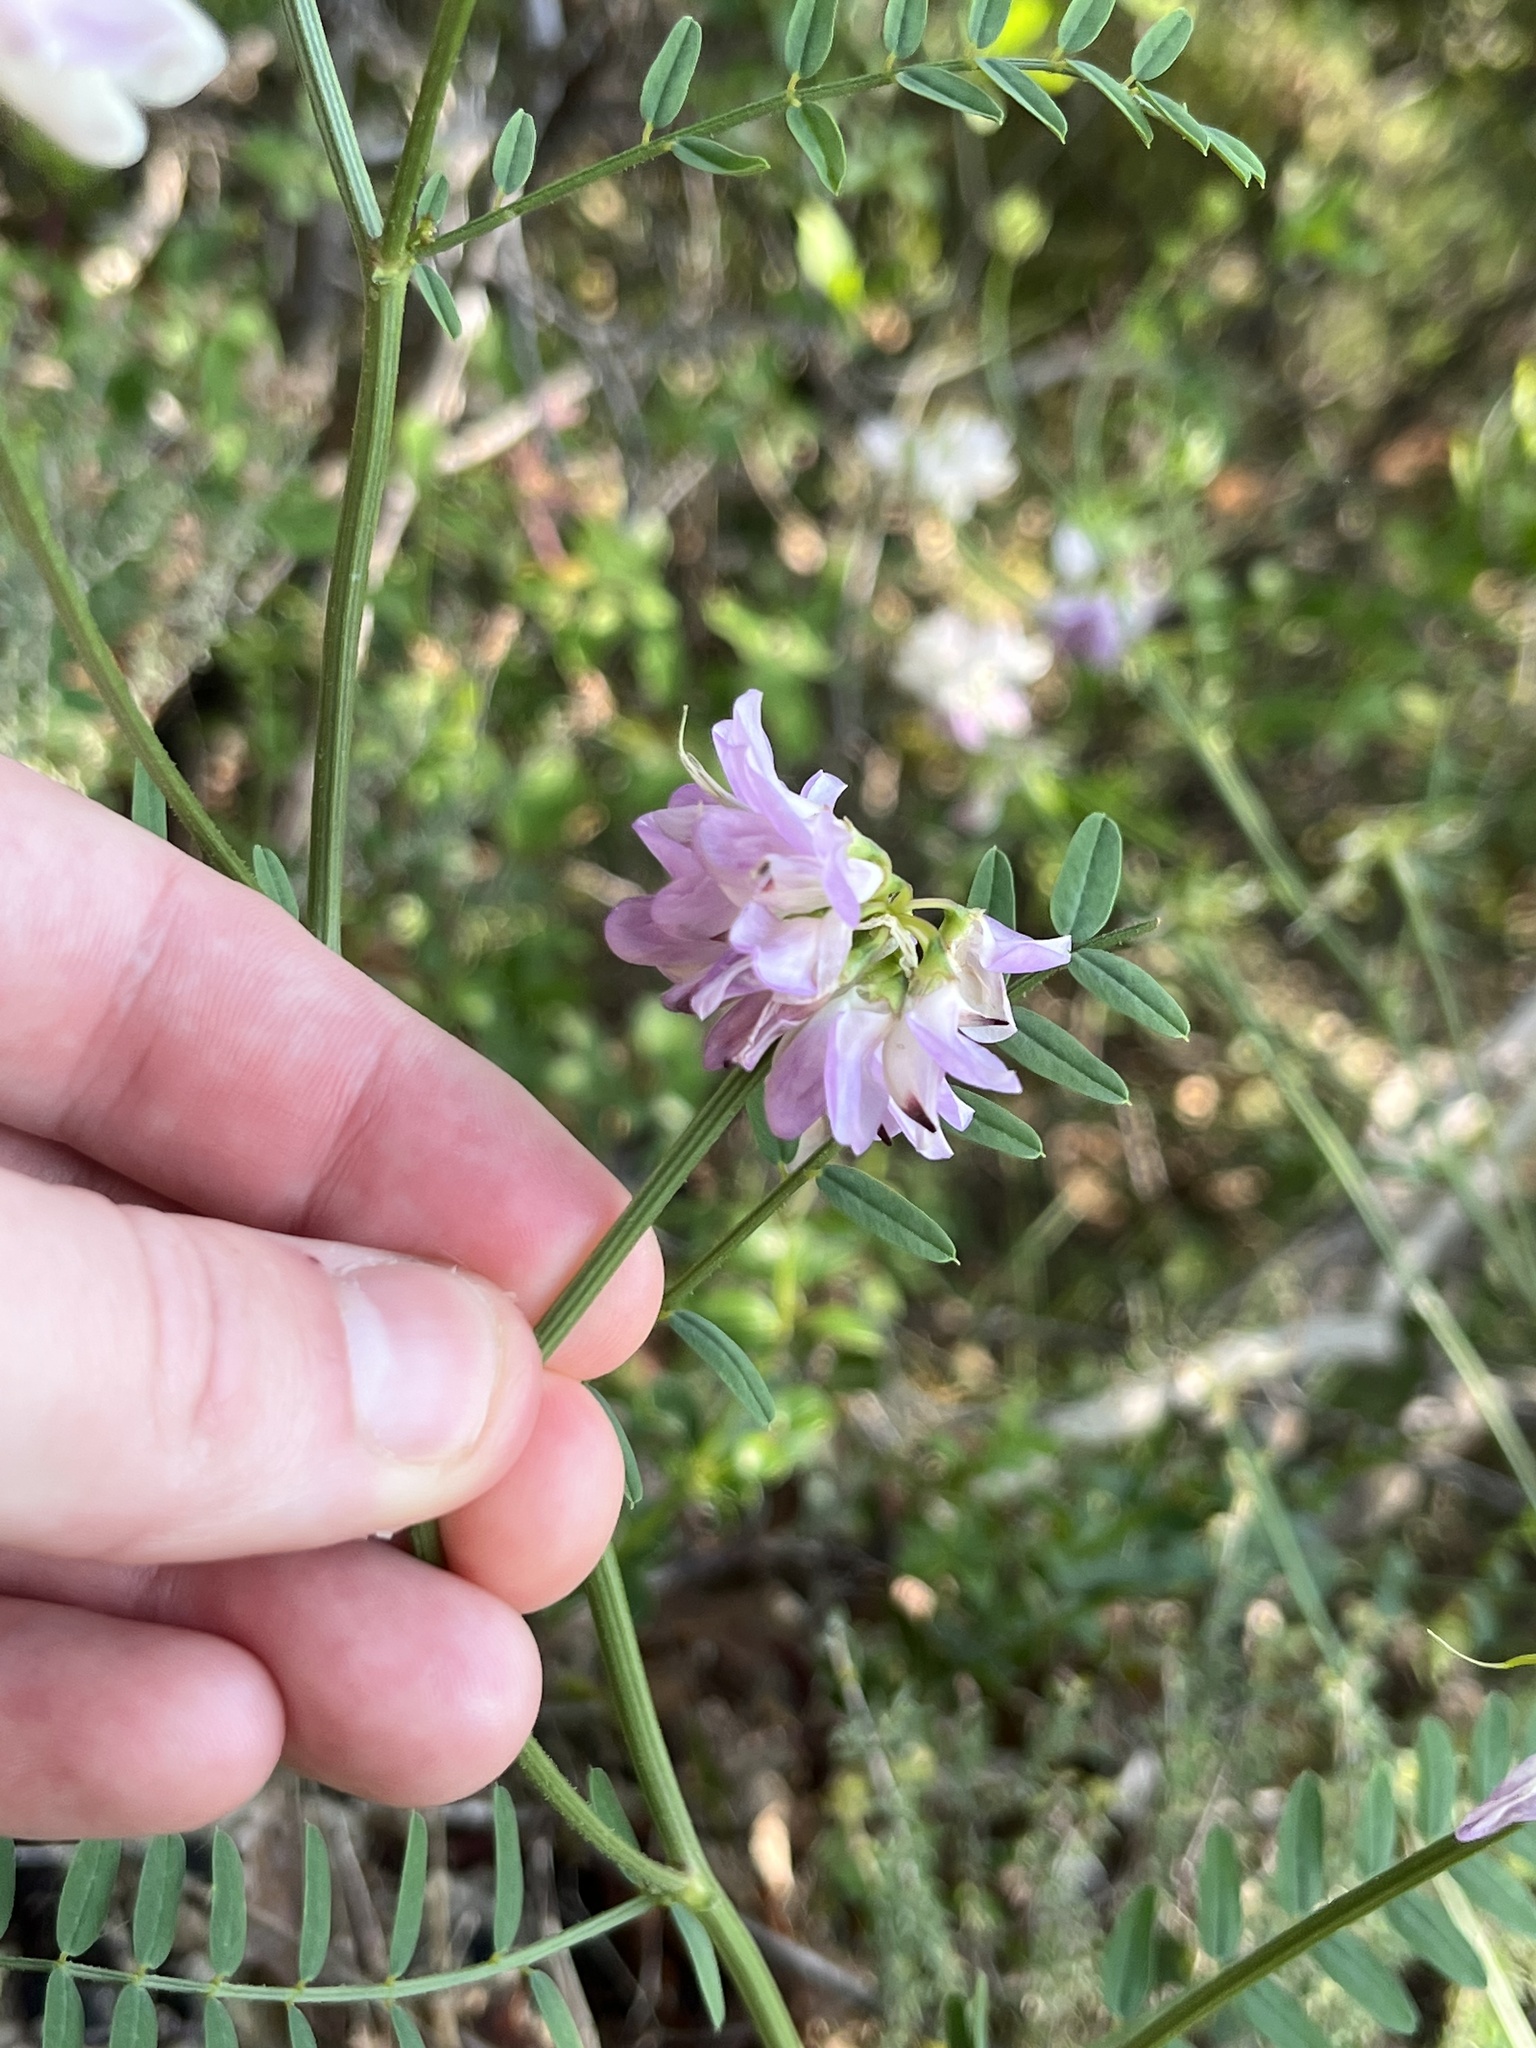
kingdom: Plantae
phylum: Tracheophyta
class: Magnoliopsida
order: Fabales
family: Fabaceae
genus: Coronilla
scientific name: Coronilla varia
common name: Crownvetch
